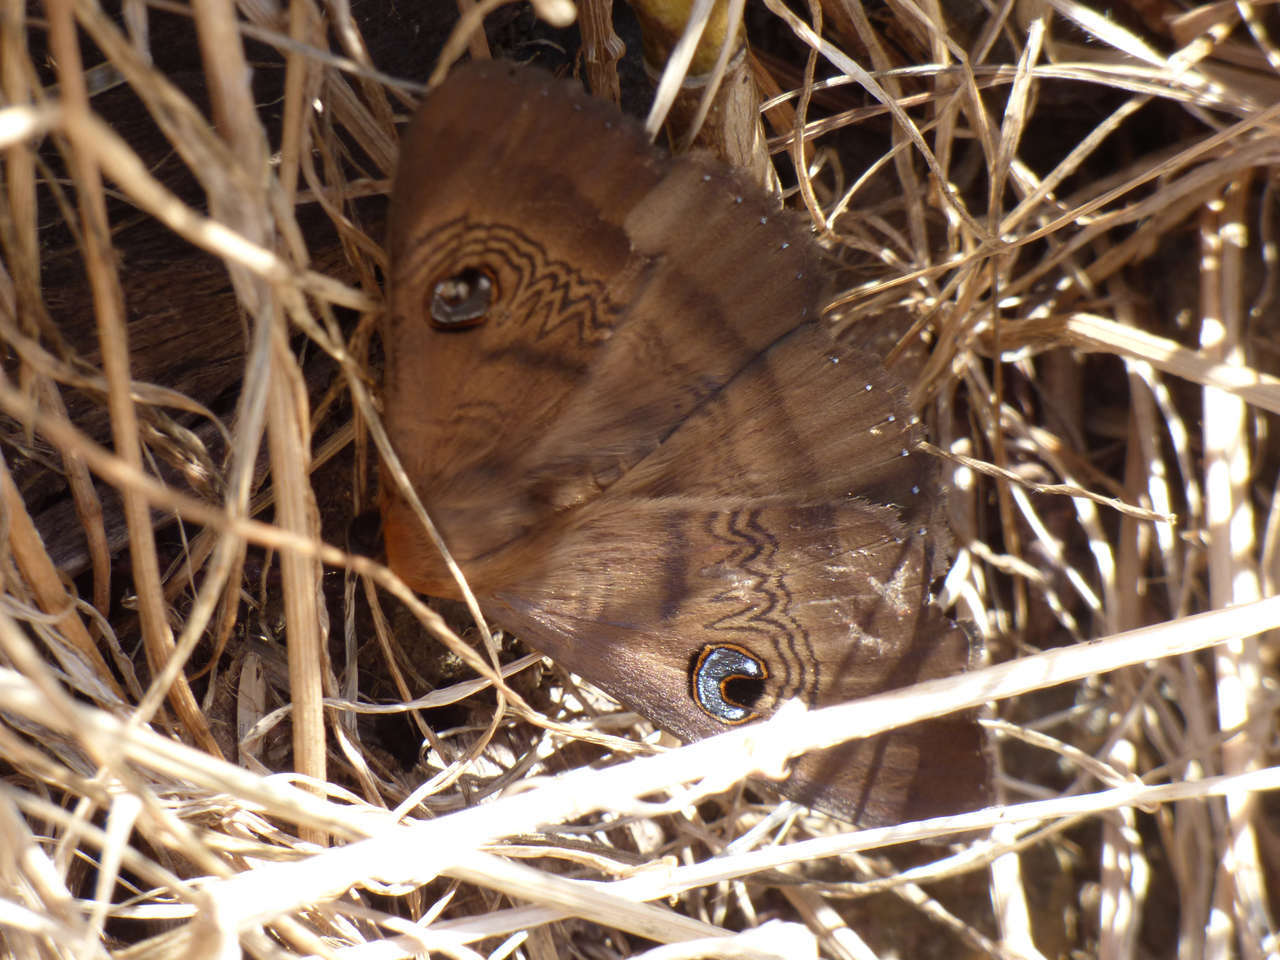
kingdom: Animalia
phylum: Arthropoda
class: Insecta
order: Lepidoptera
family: Erebidae
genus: Dasypodia
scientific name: Dasypodia selenophora
